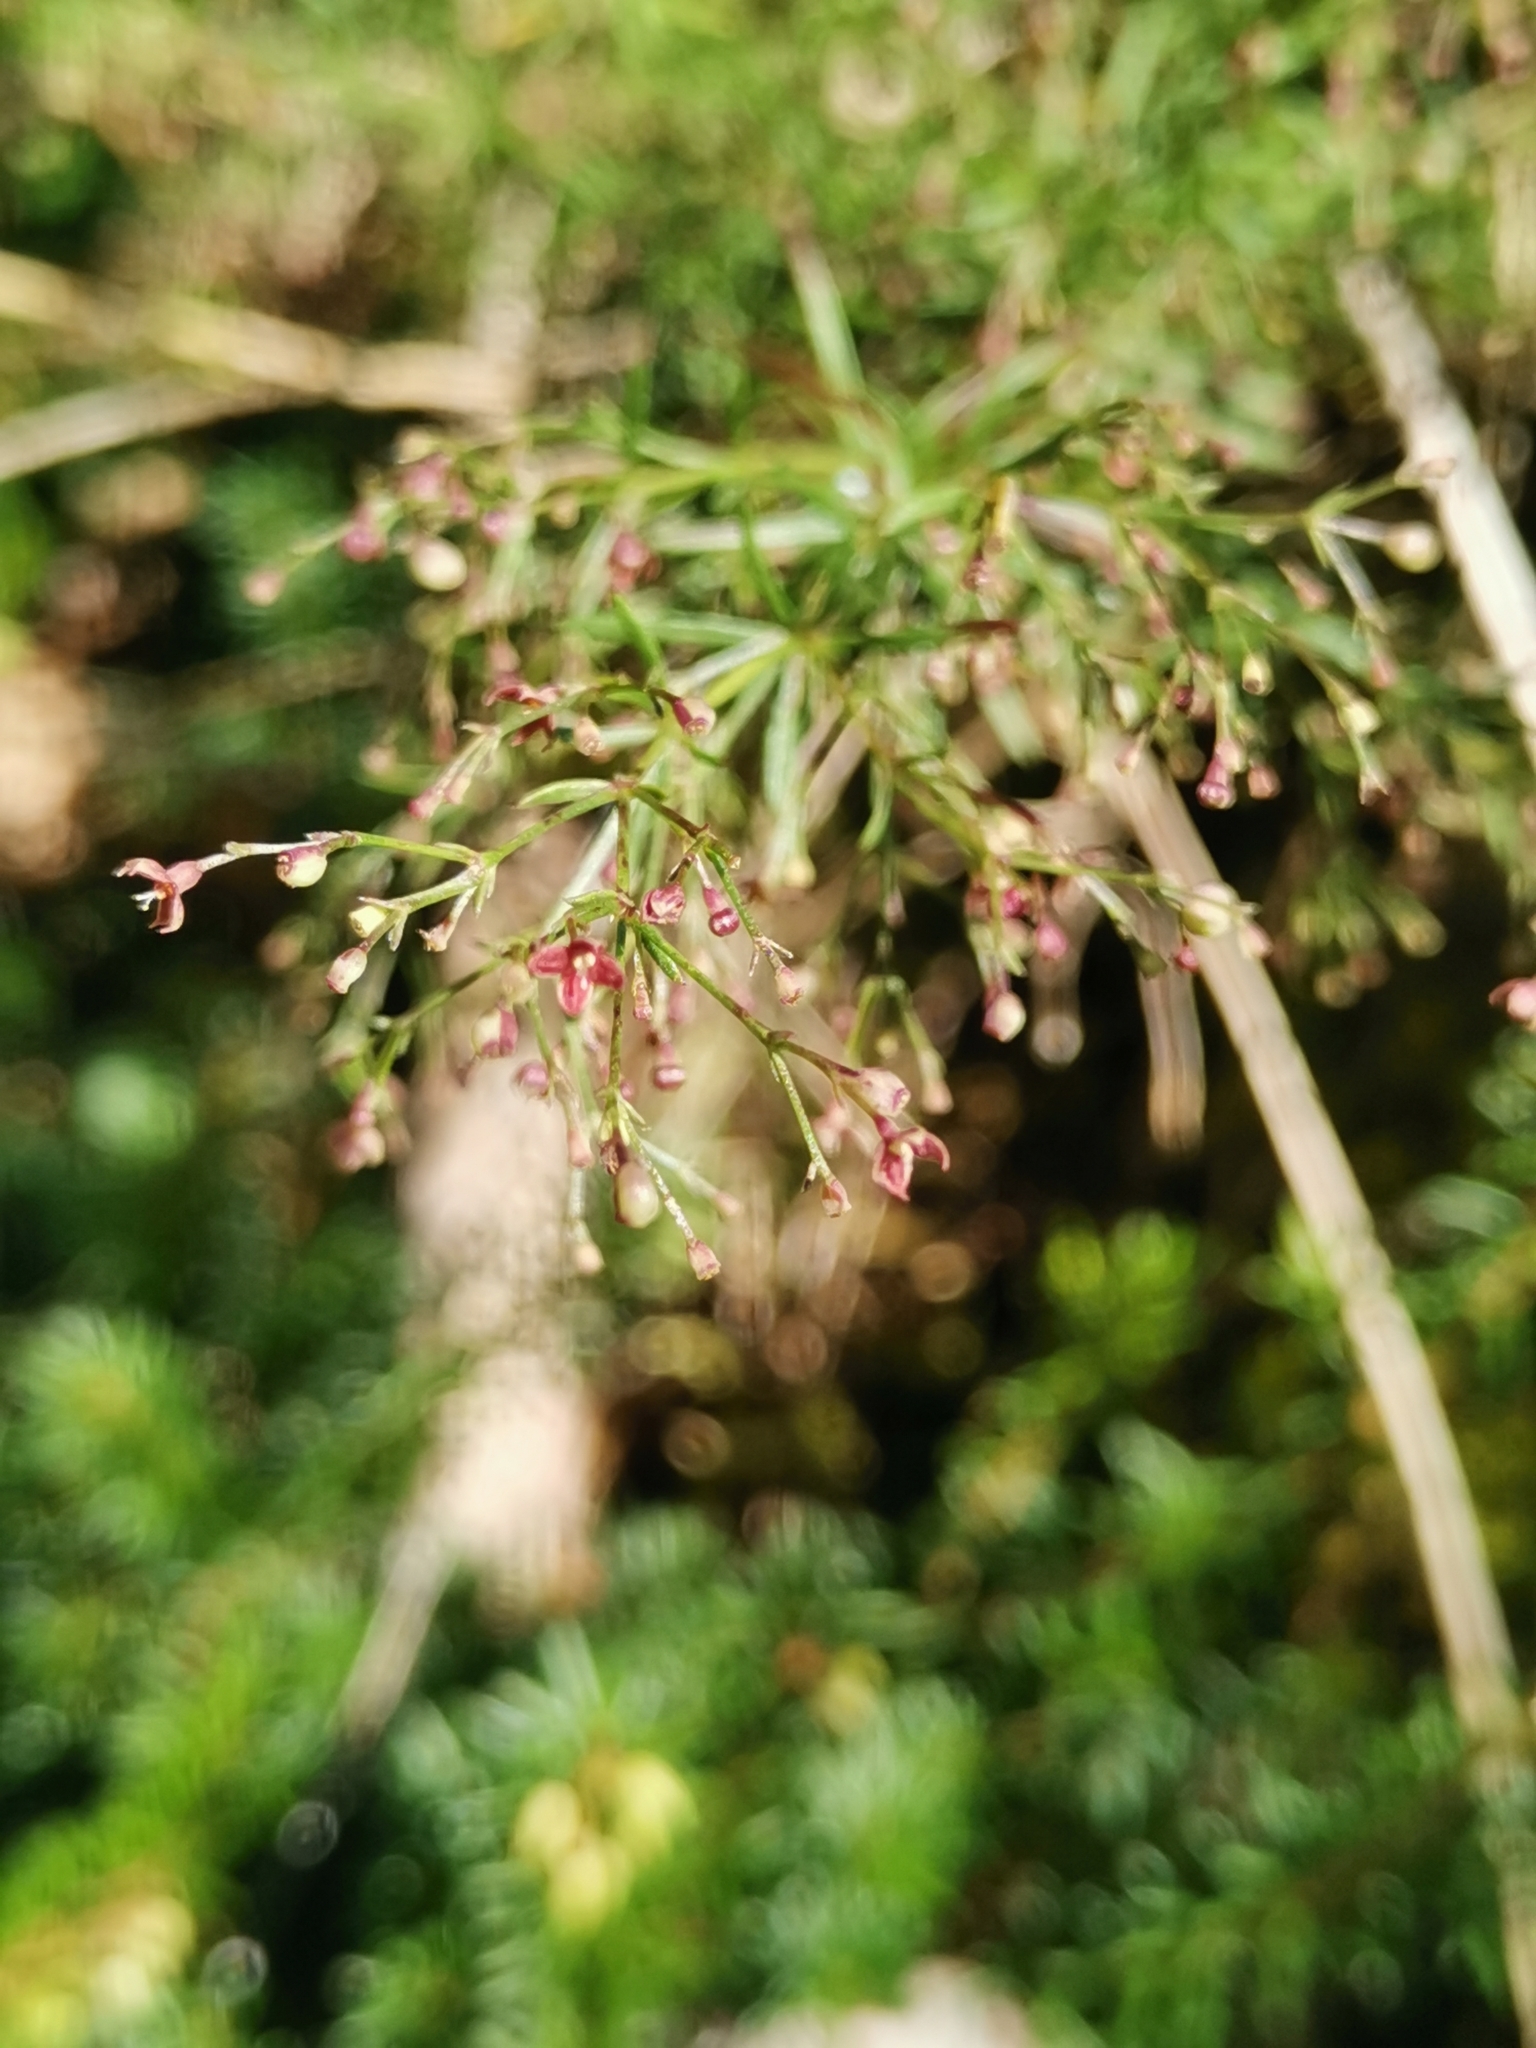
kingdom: Plantae
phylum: Tracheophyta
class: Magnoliopsida
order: Gentianales
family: Rubiaceae
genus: Thliphthisa
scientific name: Thliphthisa purpurea
